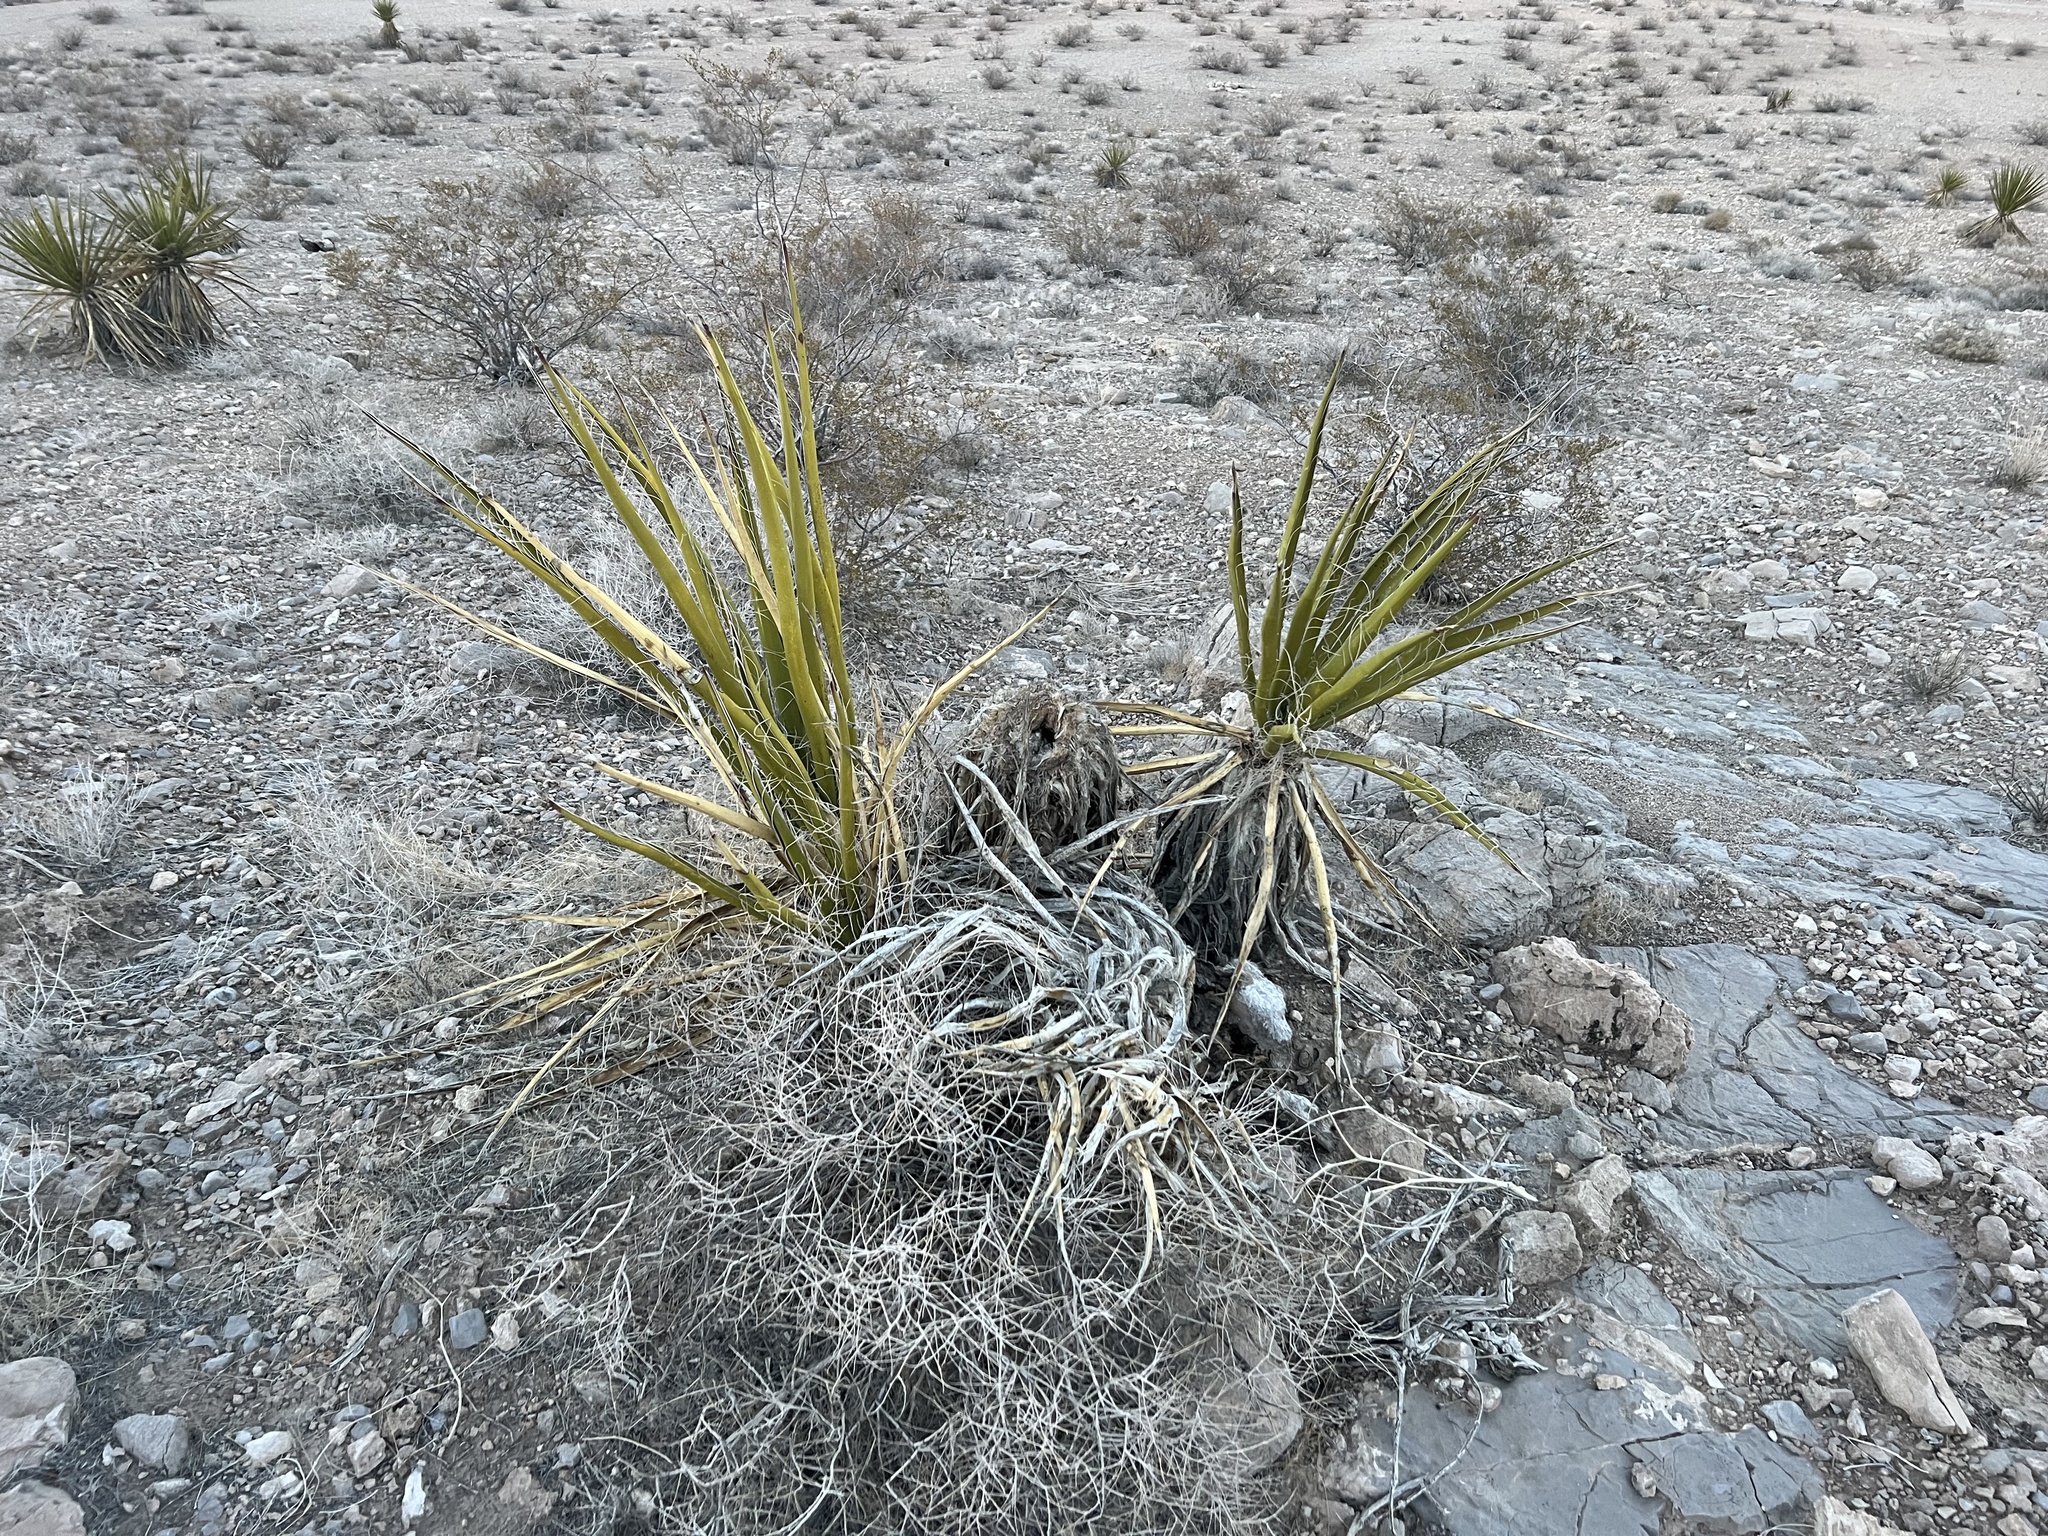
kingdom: Plantae
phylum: Tracheophyta
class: Liliopsida
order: Asparagales
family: Asparagaceae
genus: Yucca
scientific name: Yucca schidigera
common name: Mojave yucca
